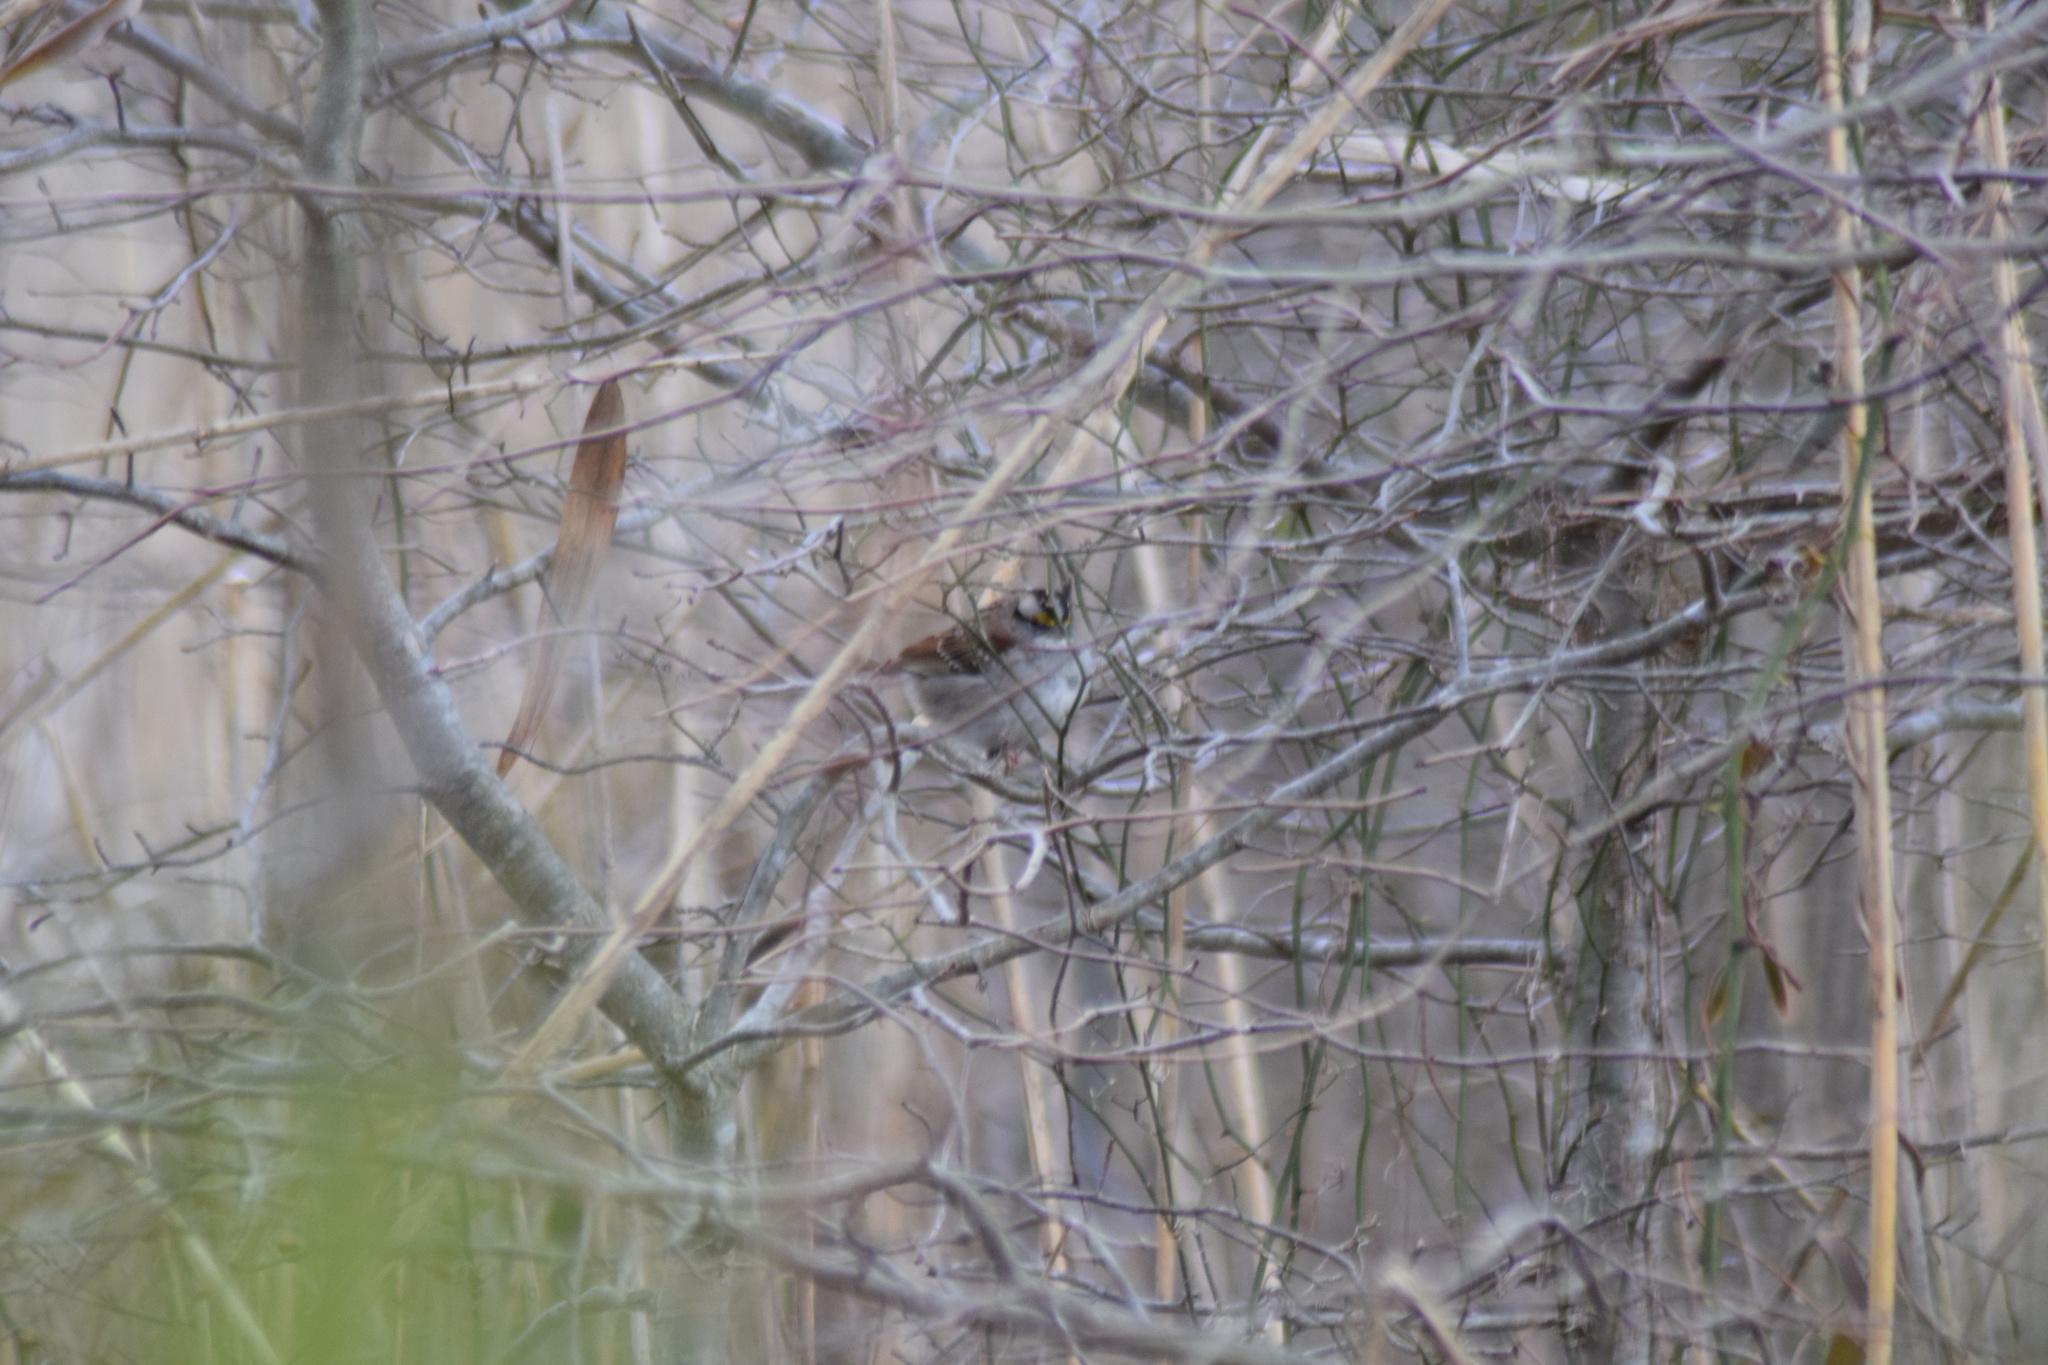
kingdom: Animalia
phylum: Chordata
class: Aves
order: Passeriformes
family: Passerellidae
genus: Zonotrichia
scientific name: Zonotrichia albicollis
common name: White-throated sparrow
